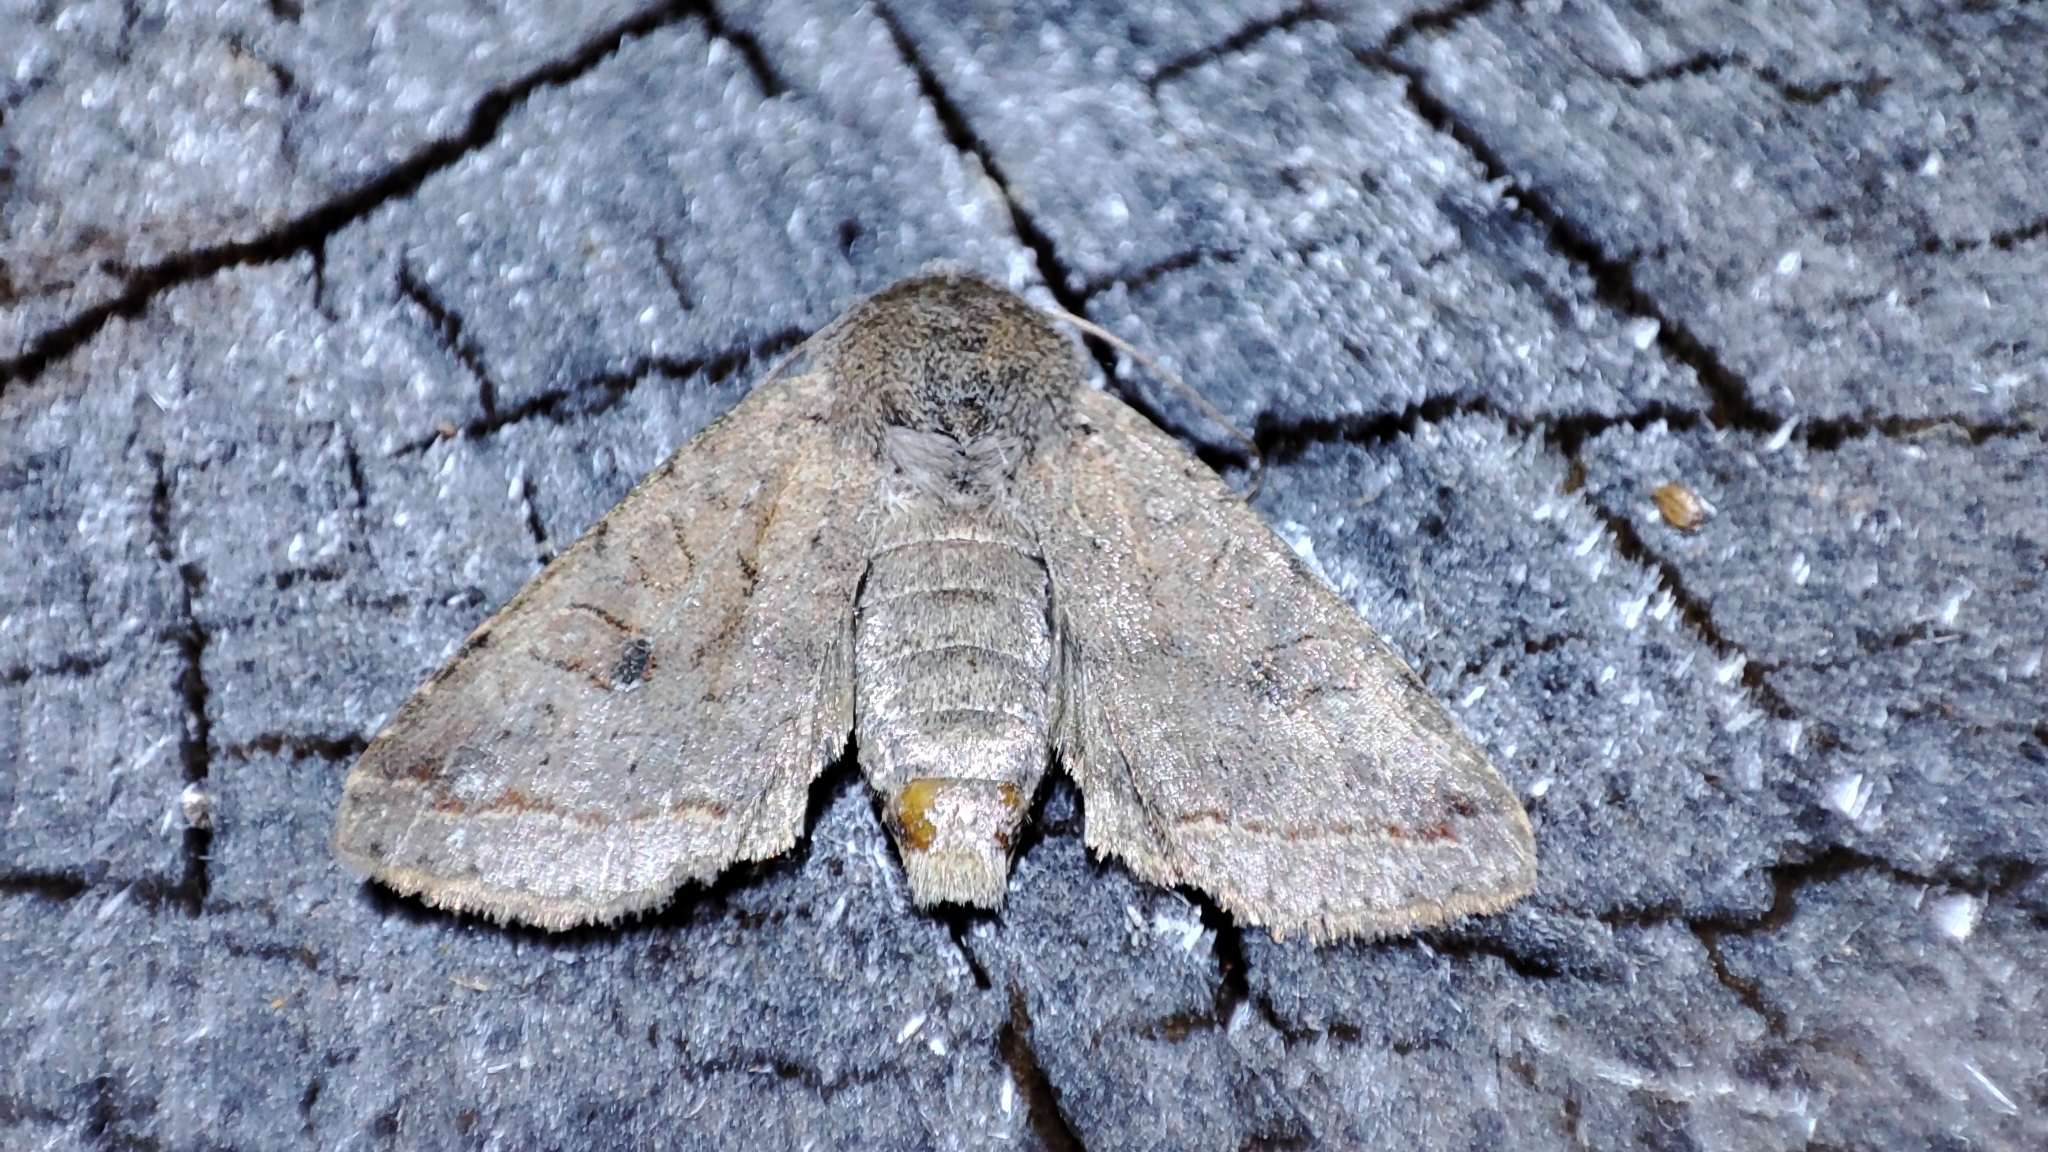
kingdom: Animalia
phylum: Arthropoda
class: Insecta
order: Lepidoptera
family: Noctuidae
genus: Agrochola
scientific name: Agrochola lota
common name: Red-line quaker
